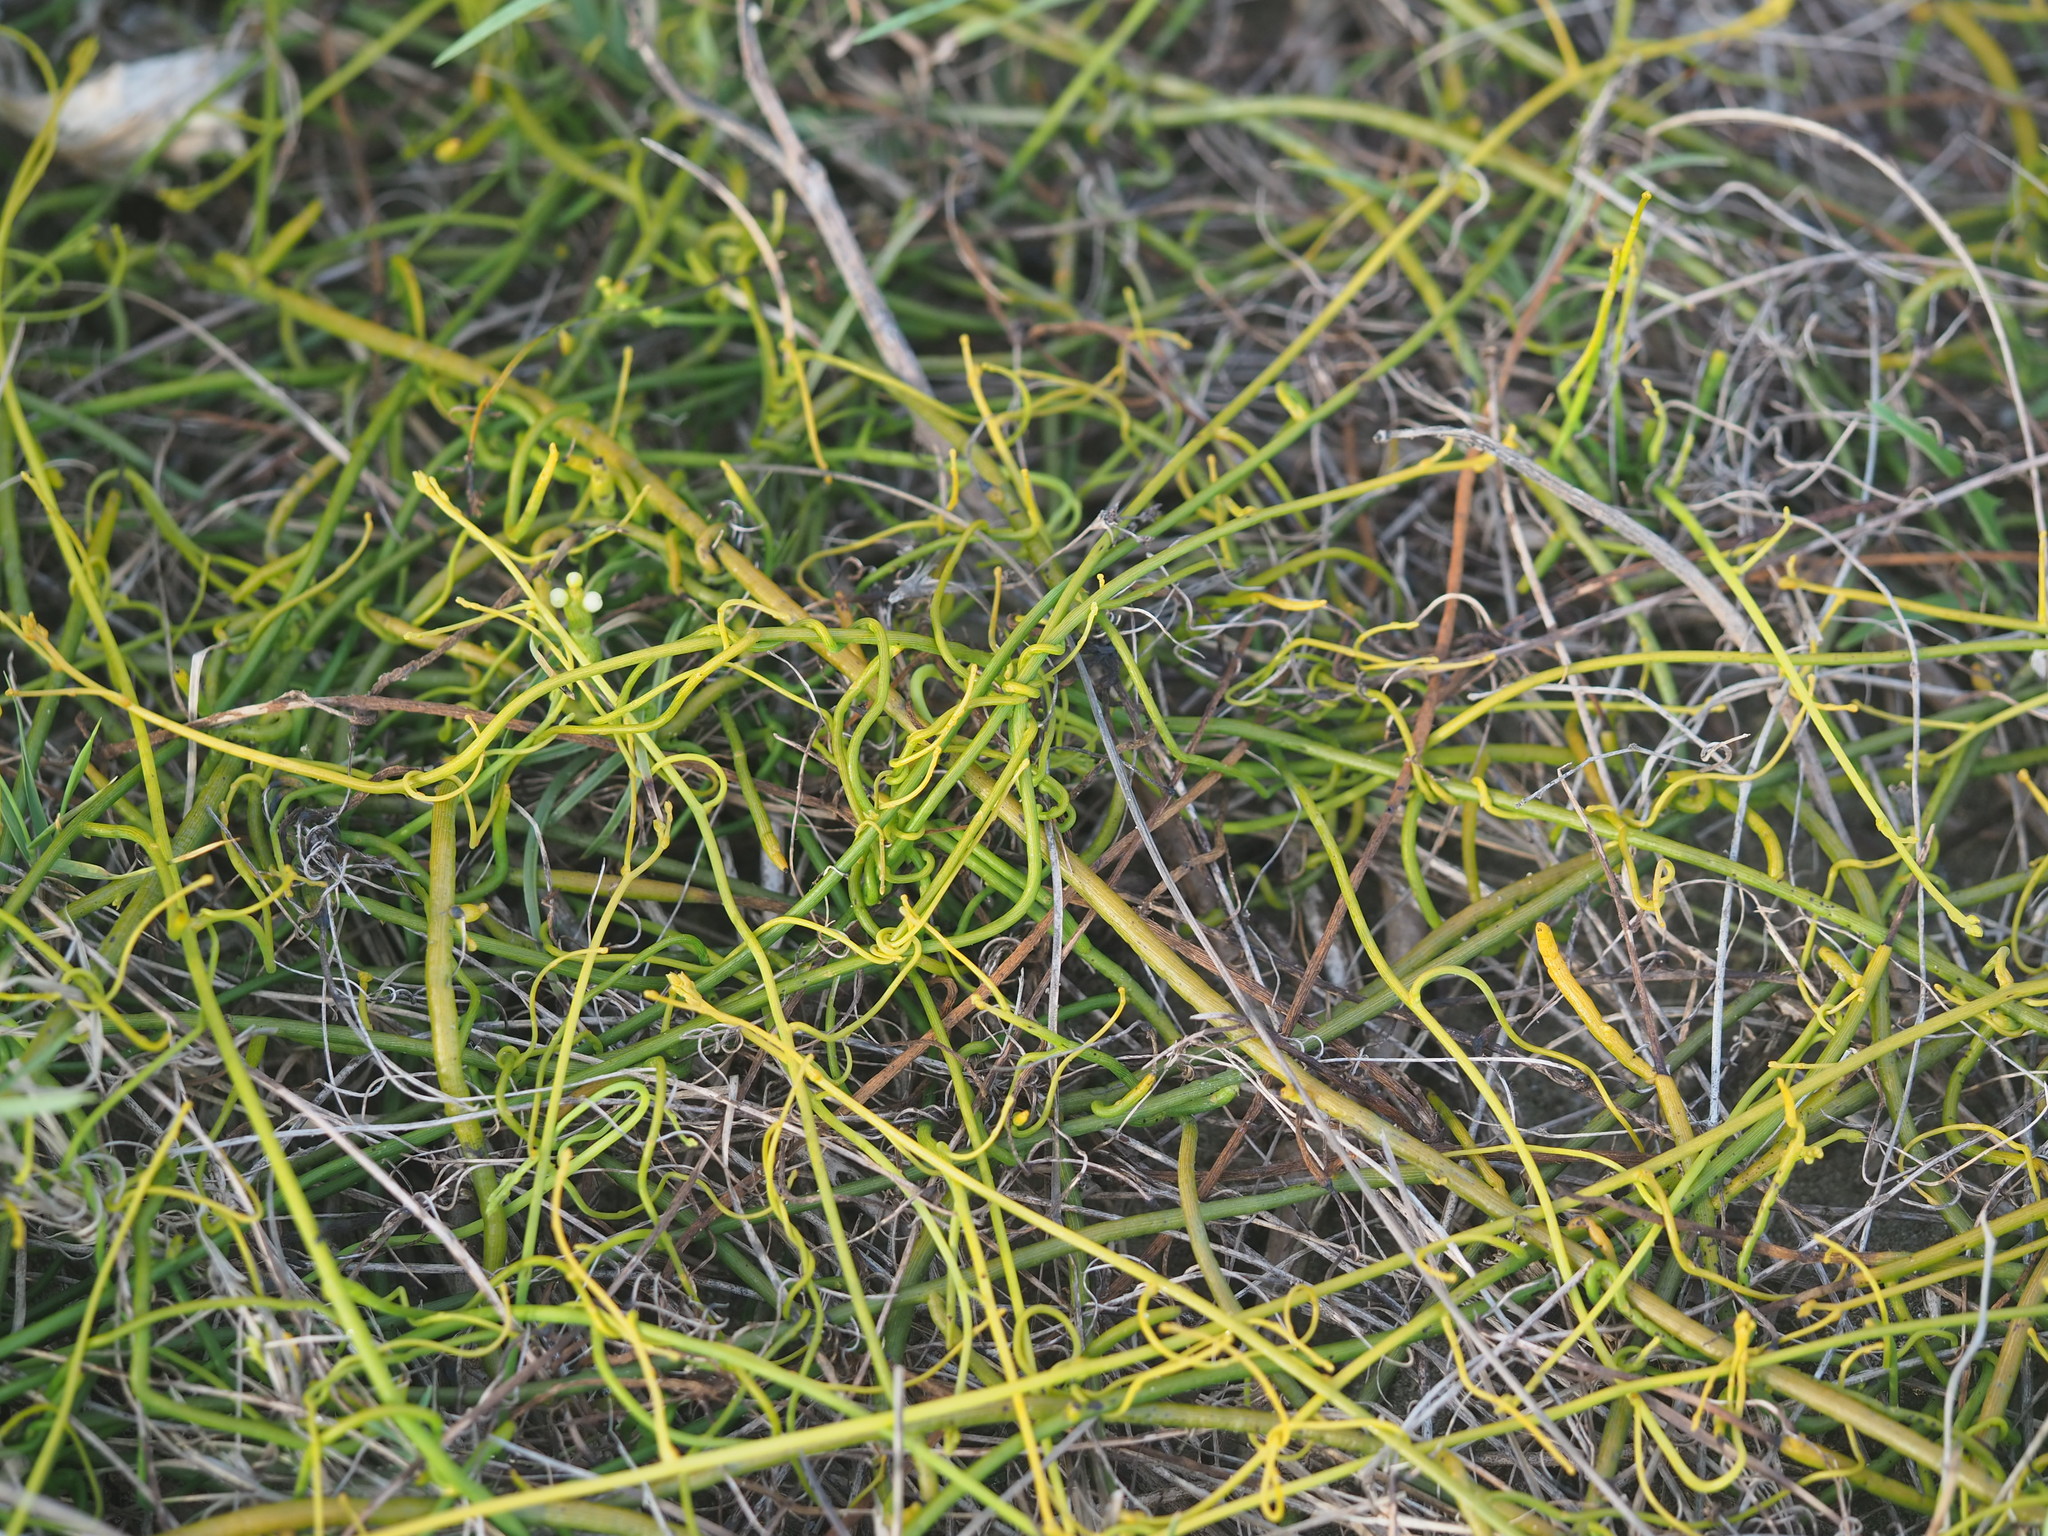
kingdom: Plantae
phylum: Tracheophyta
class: Magnoliopsida
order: Laurales
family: Lauraceae
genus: Cassytha
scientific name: Cassytha filiformis
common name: Dodder-laurel
